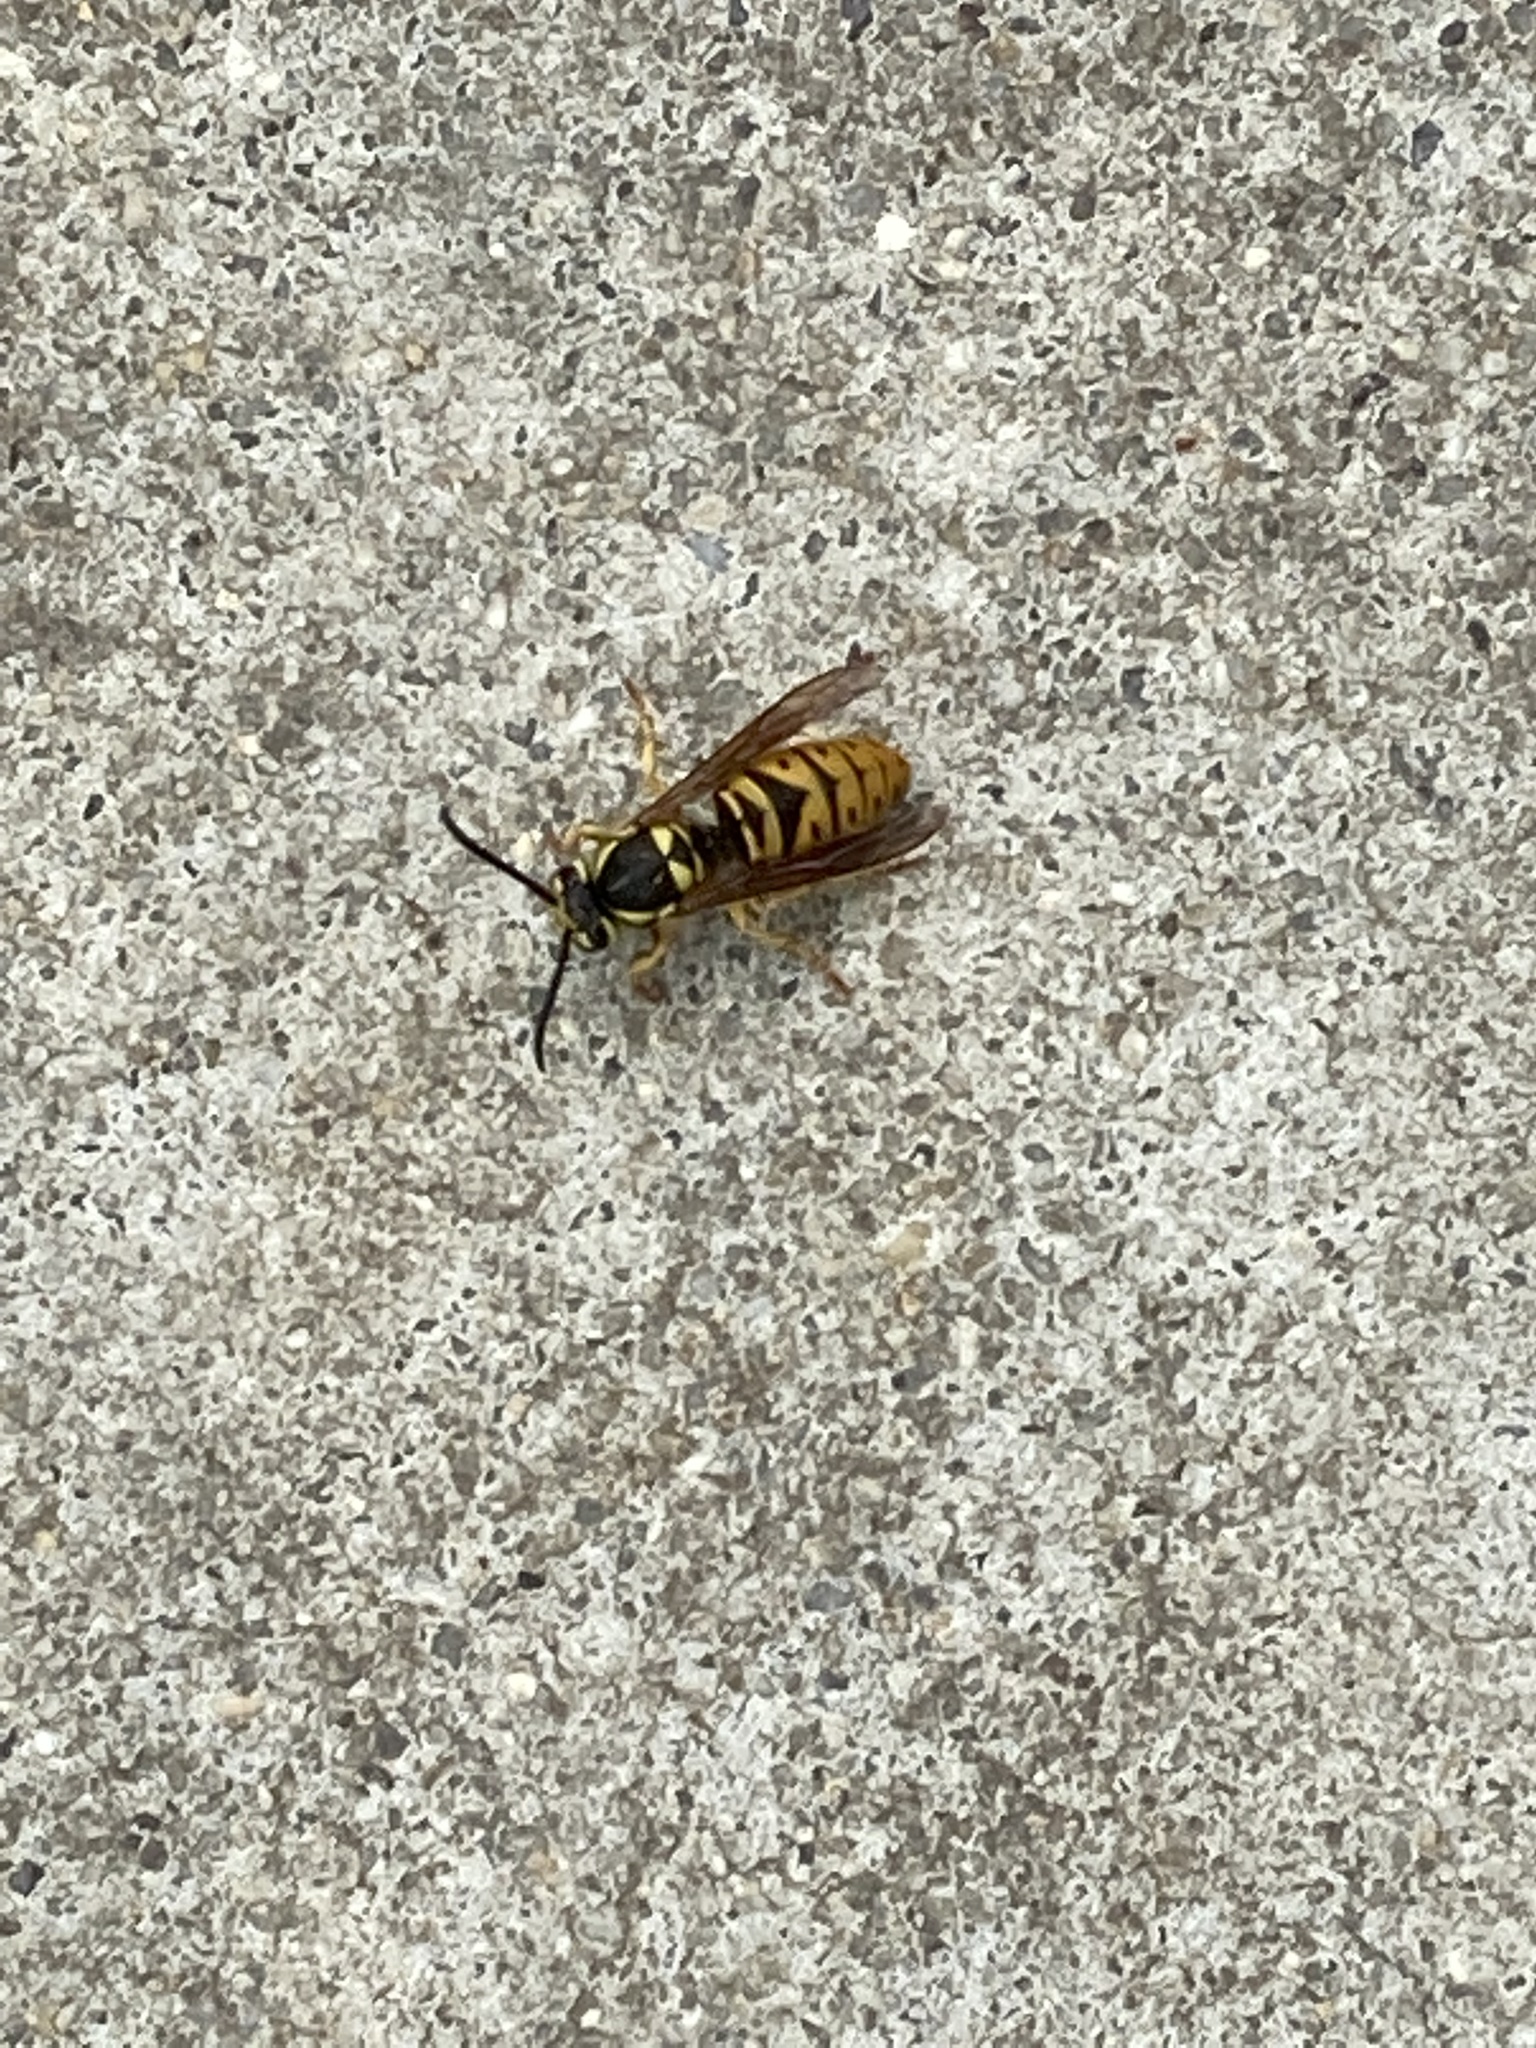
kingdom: Animalia
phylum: Arthropoda
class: Insecta
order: Hymenoptera
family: Vespidae
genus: Vespula
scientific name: Vespula maculifrons
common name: Eastern yellowjacket
